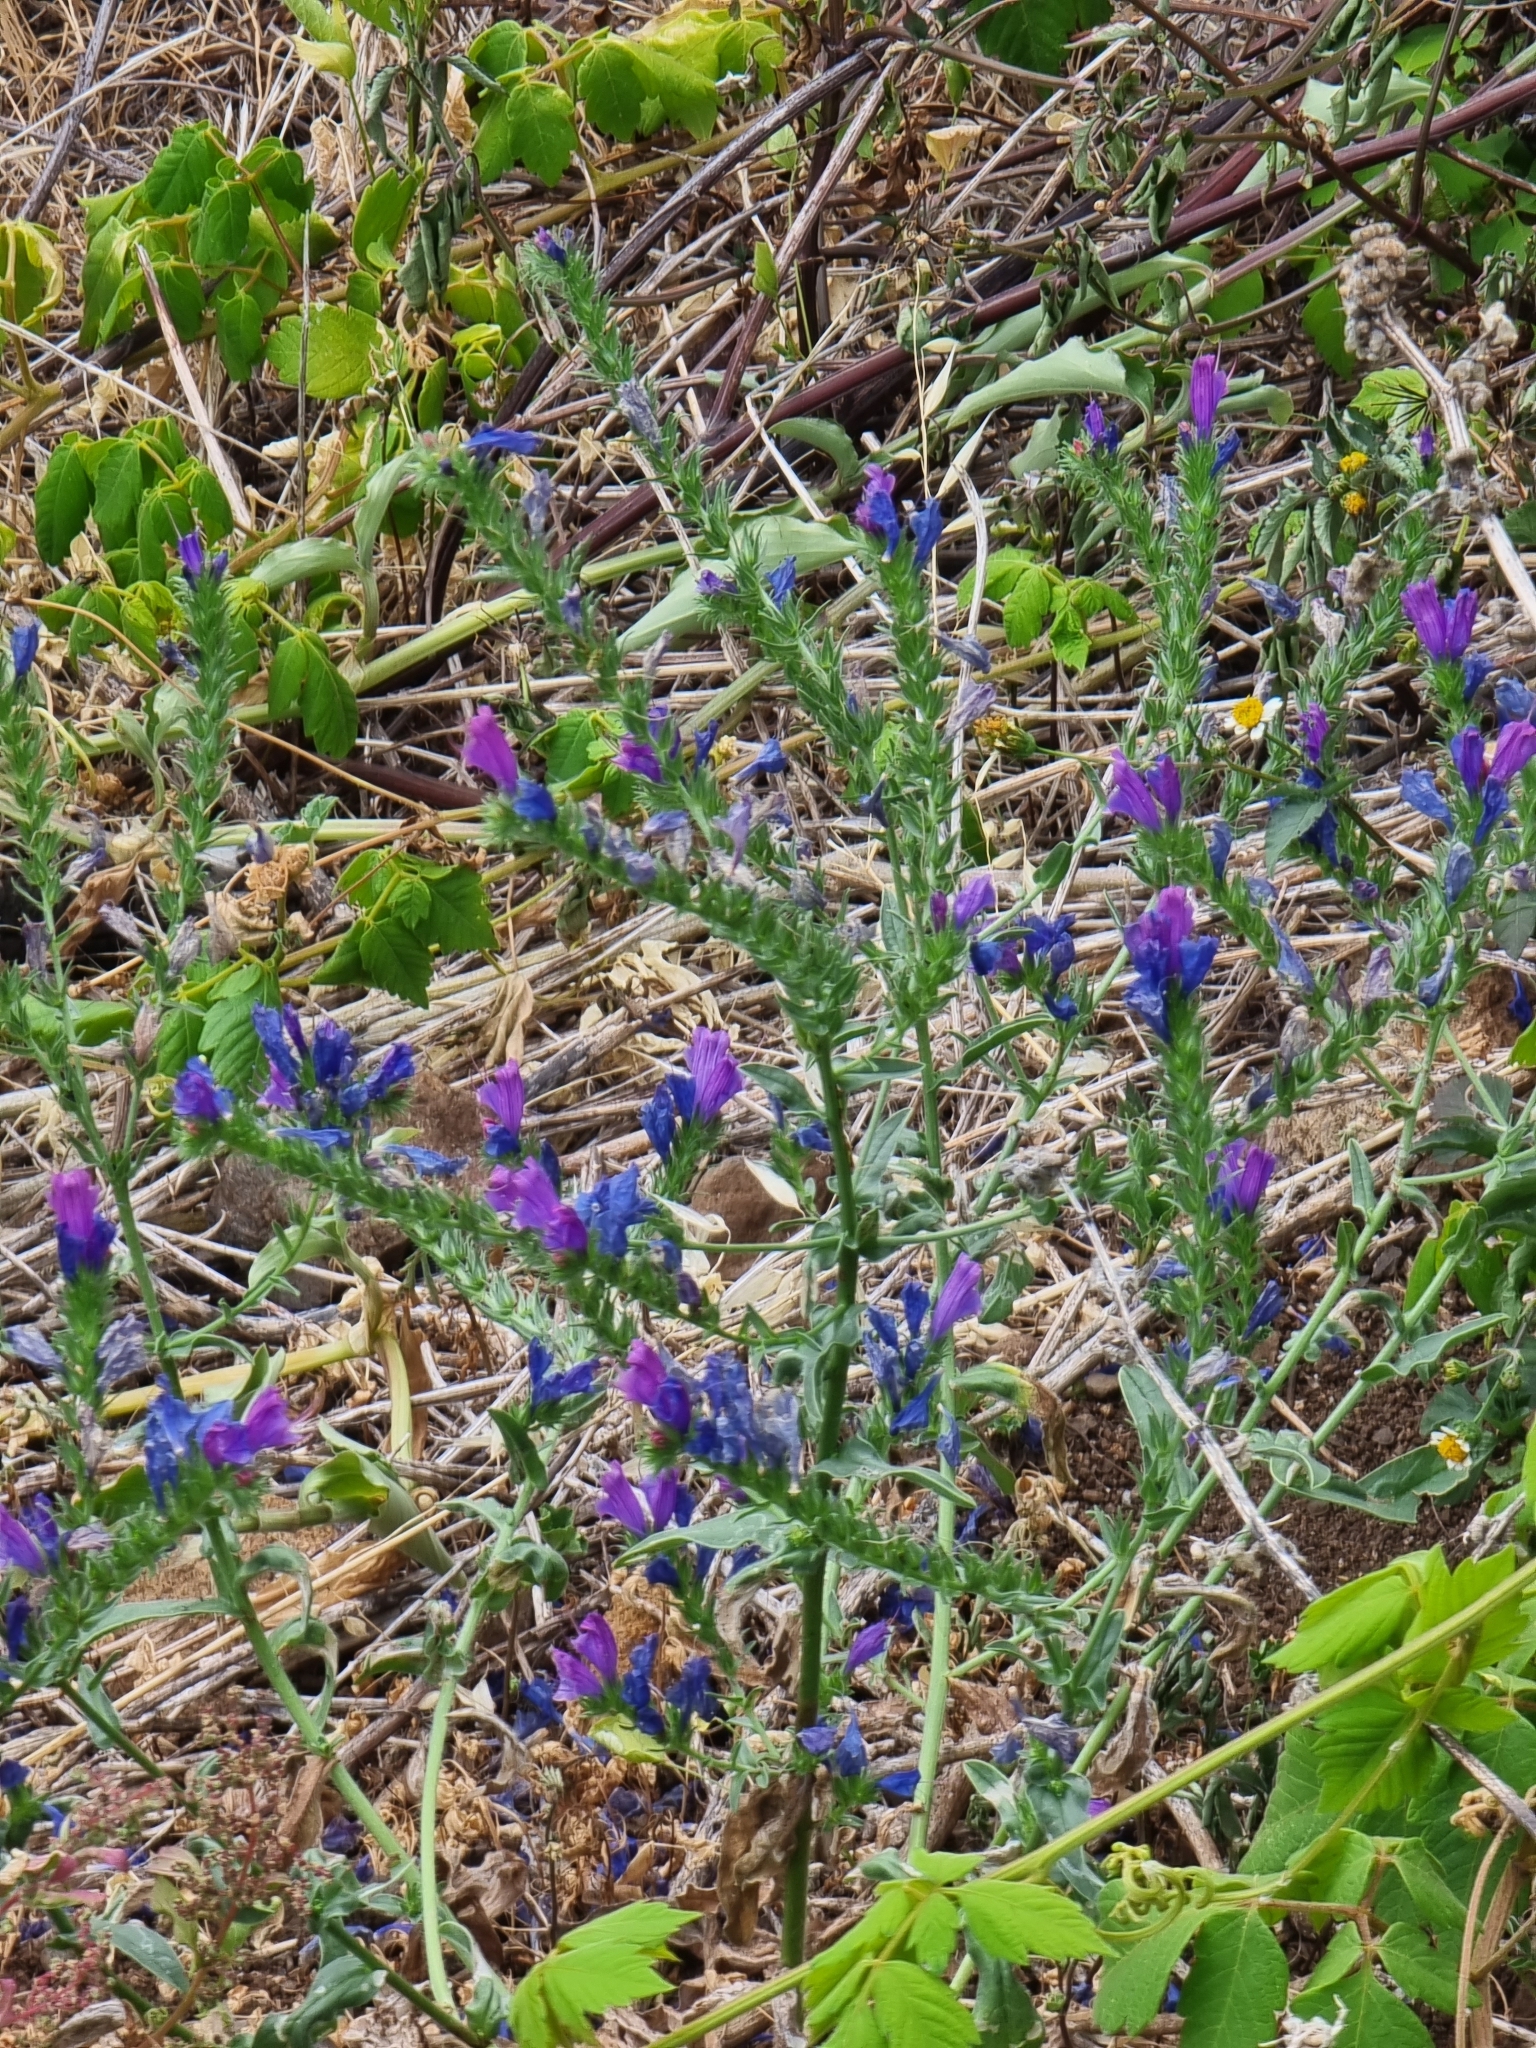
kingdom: Plantae
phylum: Tracheophyta
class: Magnoliopsida
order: Boraginales
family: Boraginaceae
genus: Echium
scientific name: Echium plantagineum
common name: Purple viper's-bugloss
